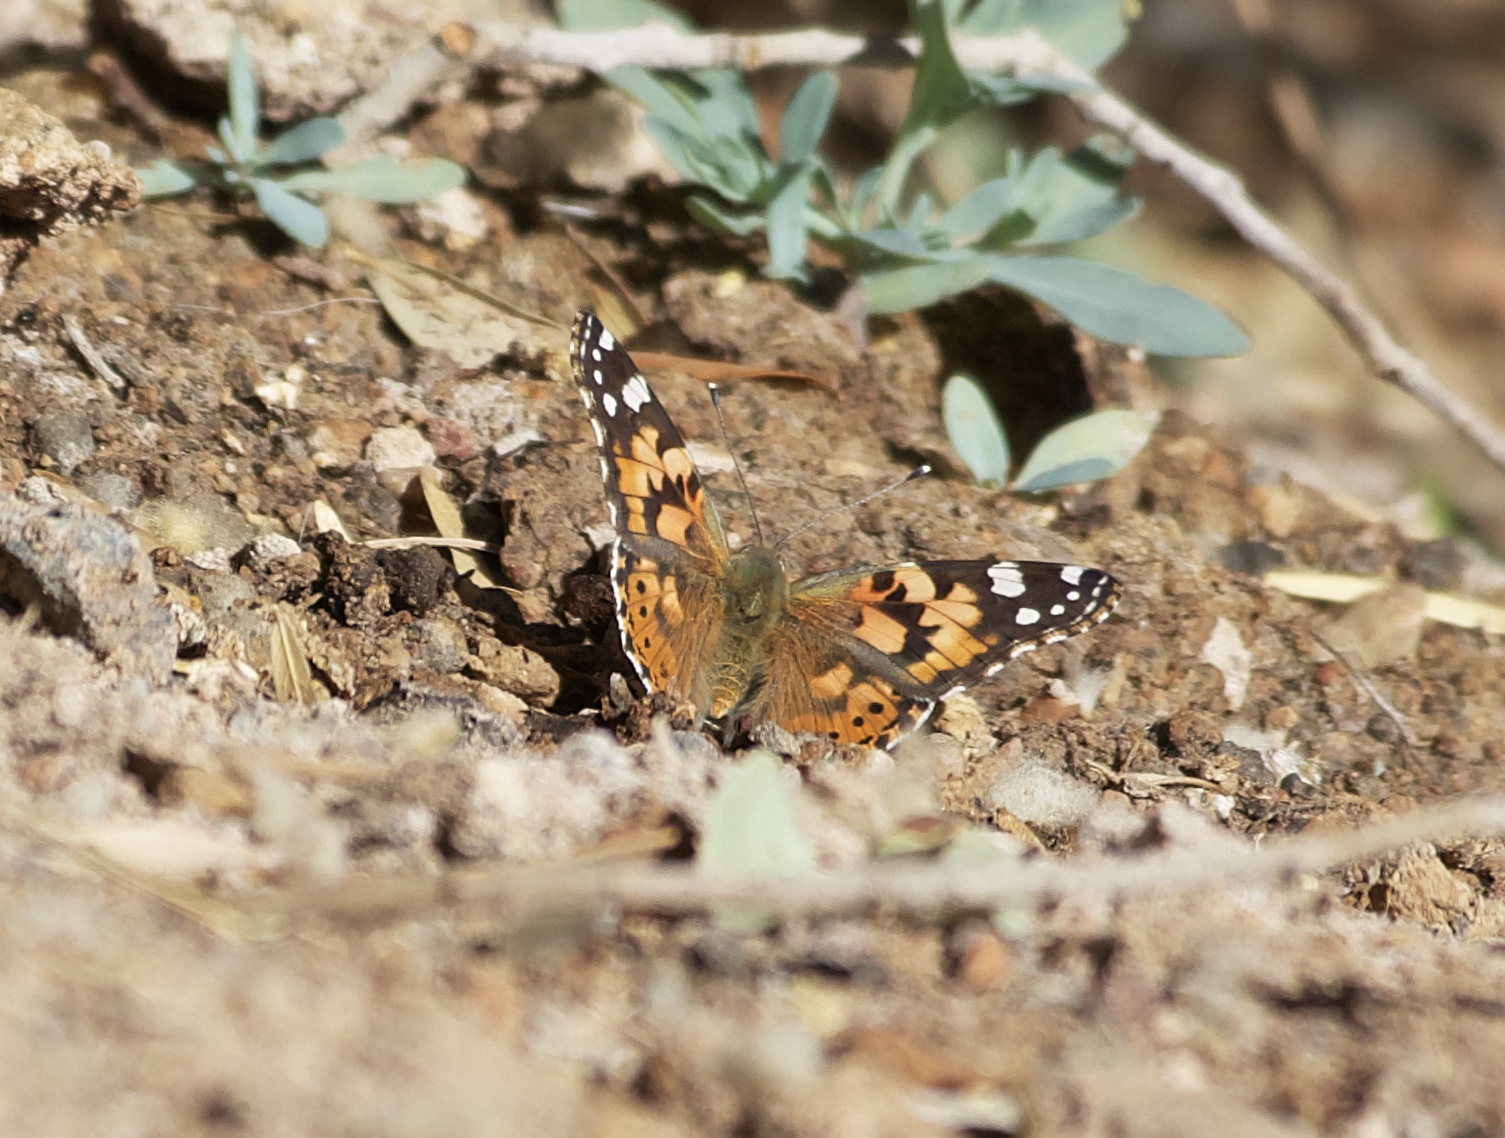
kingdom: Animalia
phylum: Arthropoda
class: Insecta
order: Lepidoptera
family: Nymphalidae
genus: Vanessa
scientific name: Vanessa cardui
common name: Painted lady
